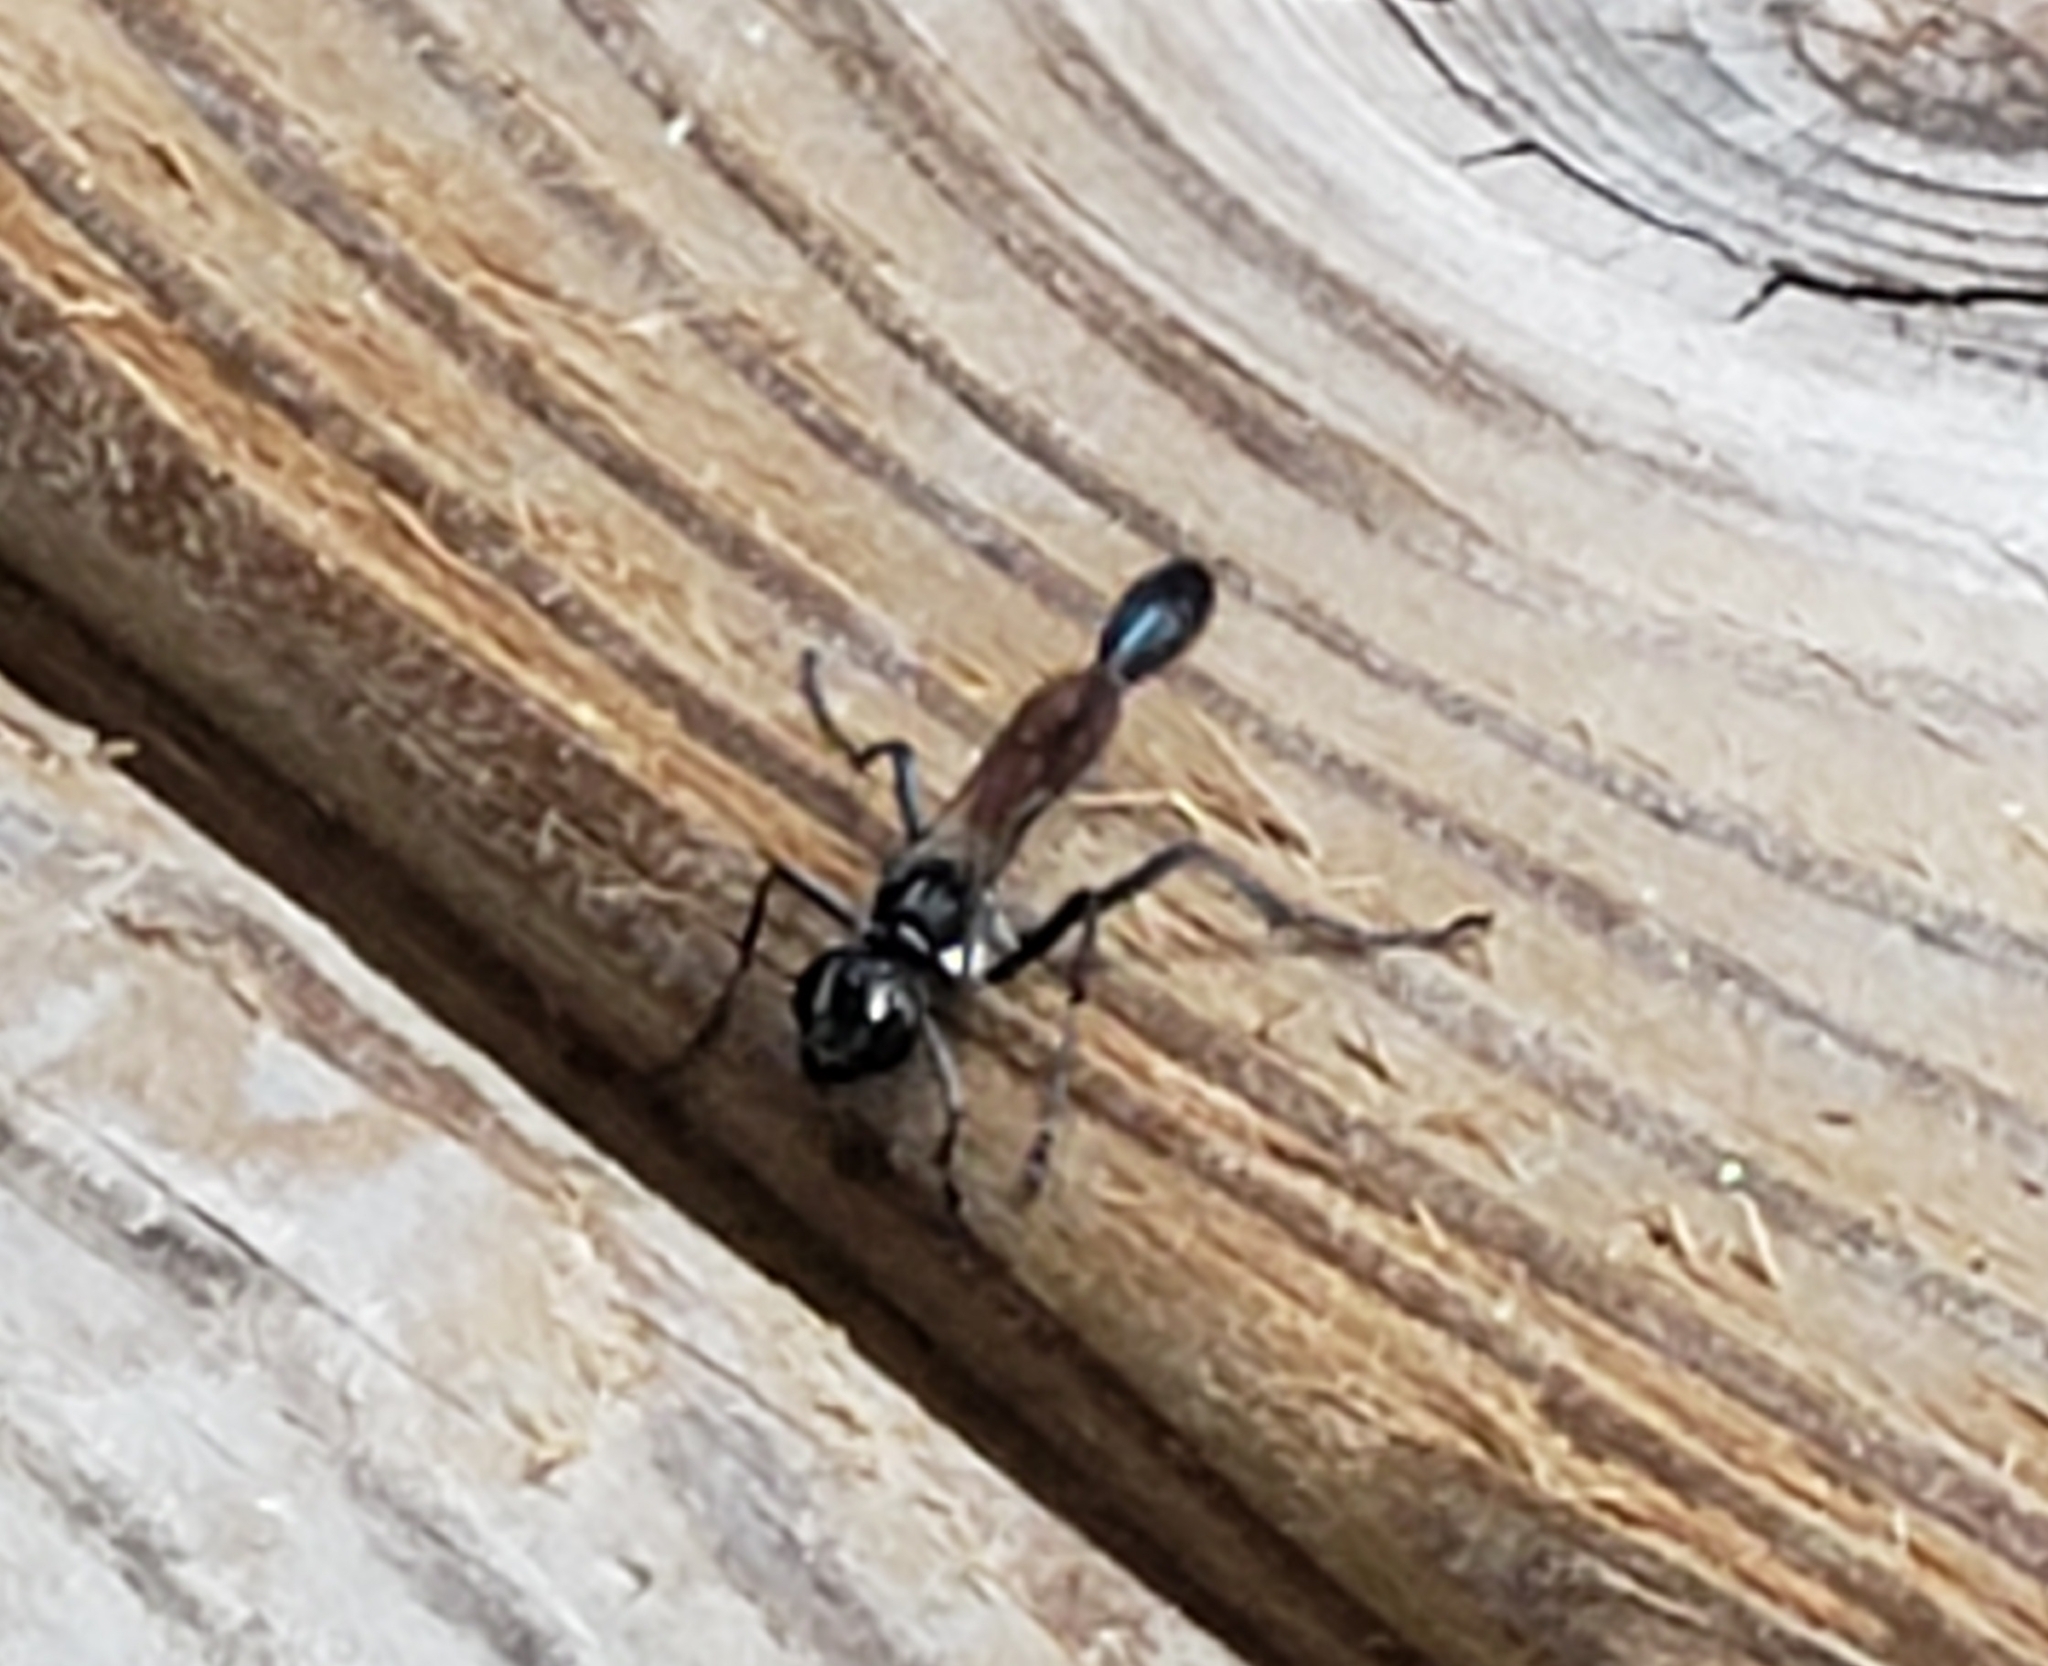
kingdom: Animalia
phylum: Arthropoda
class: Insecta
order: Hymenoptera
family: Sphecidae
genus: Eremnophila
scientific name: Eremnophila aureonotata
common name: Gold-marked thread-waisted wasp
